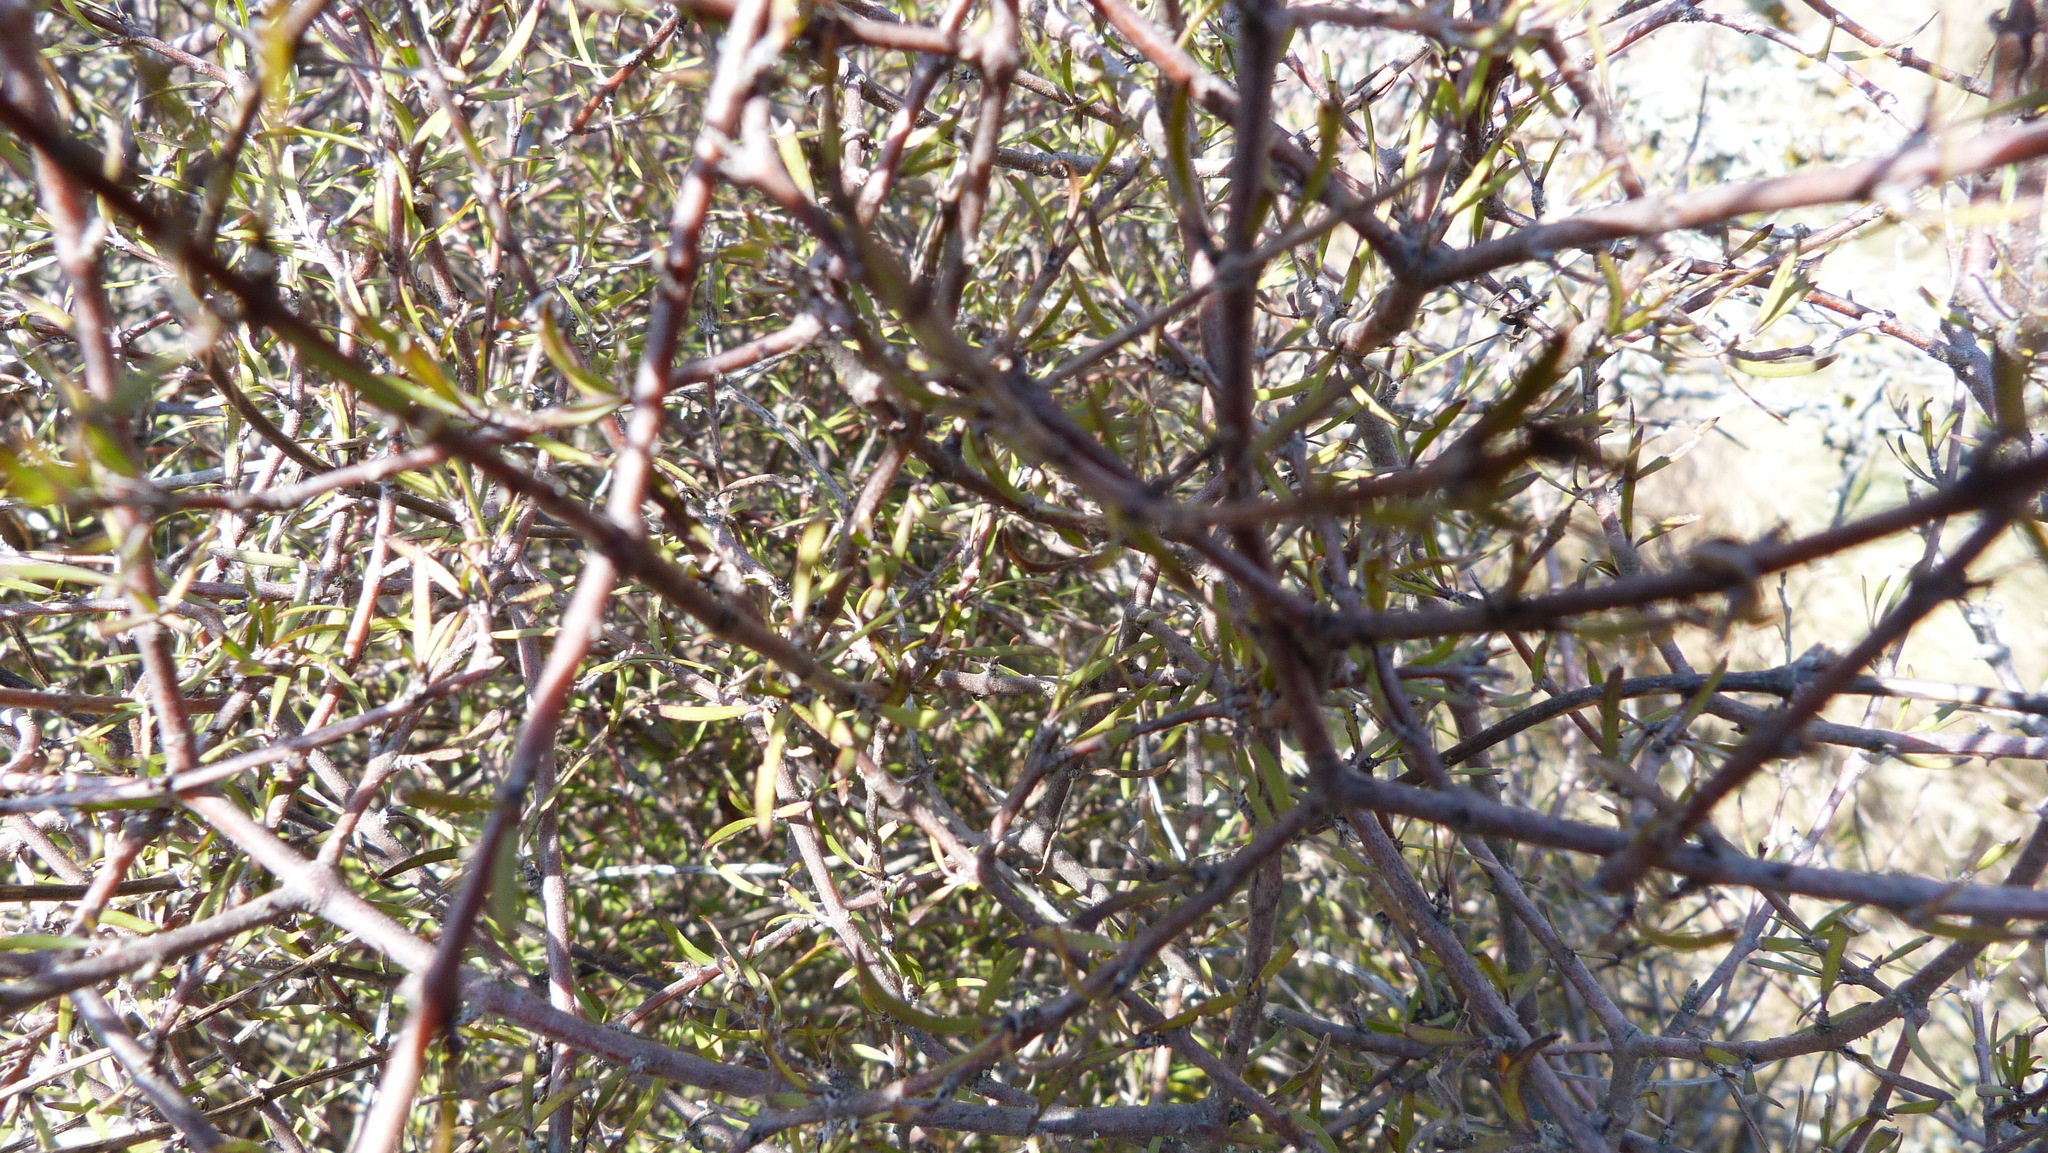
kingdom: Plantae
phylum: Tracheophyta
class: Magnoliopsida
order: Gentianales
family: Rubiaceae
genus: Coprosma
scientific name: Coprosma intertexta
